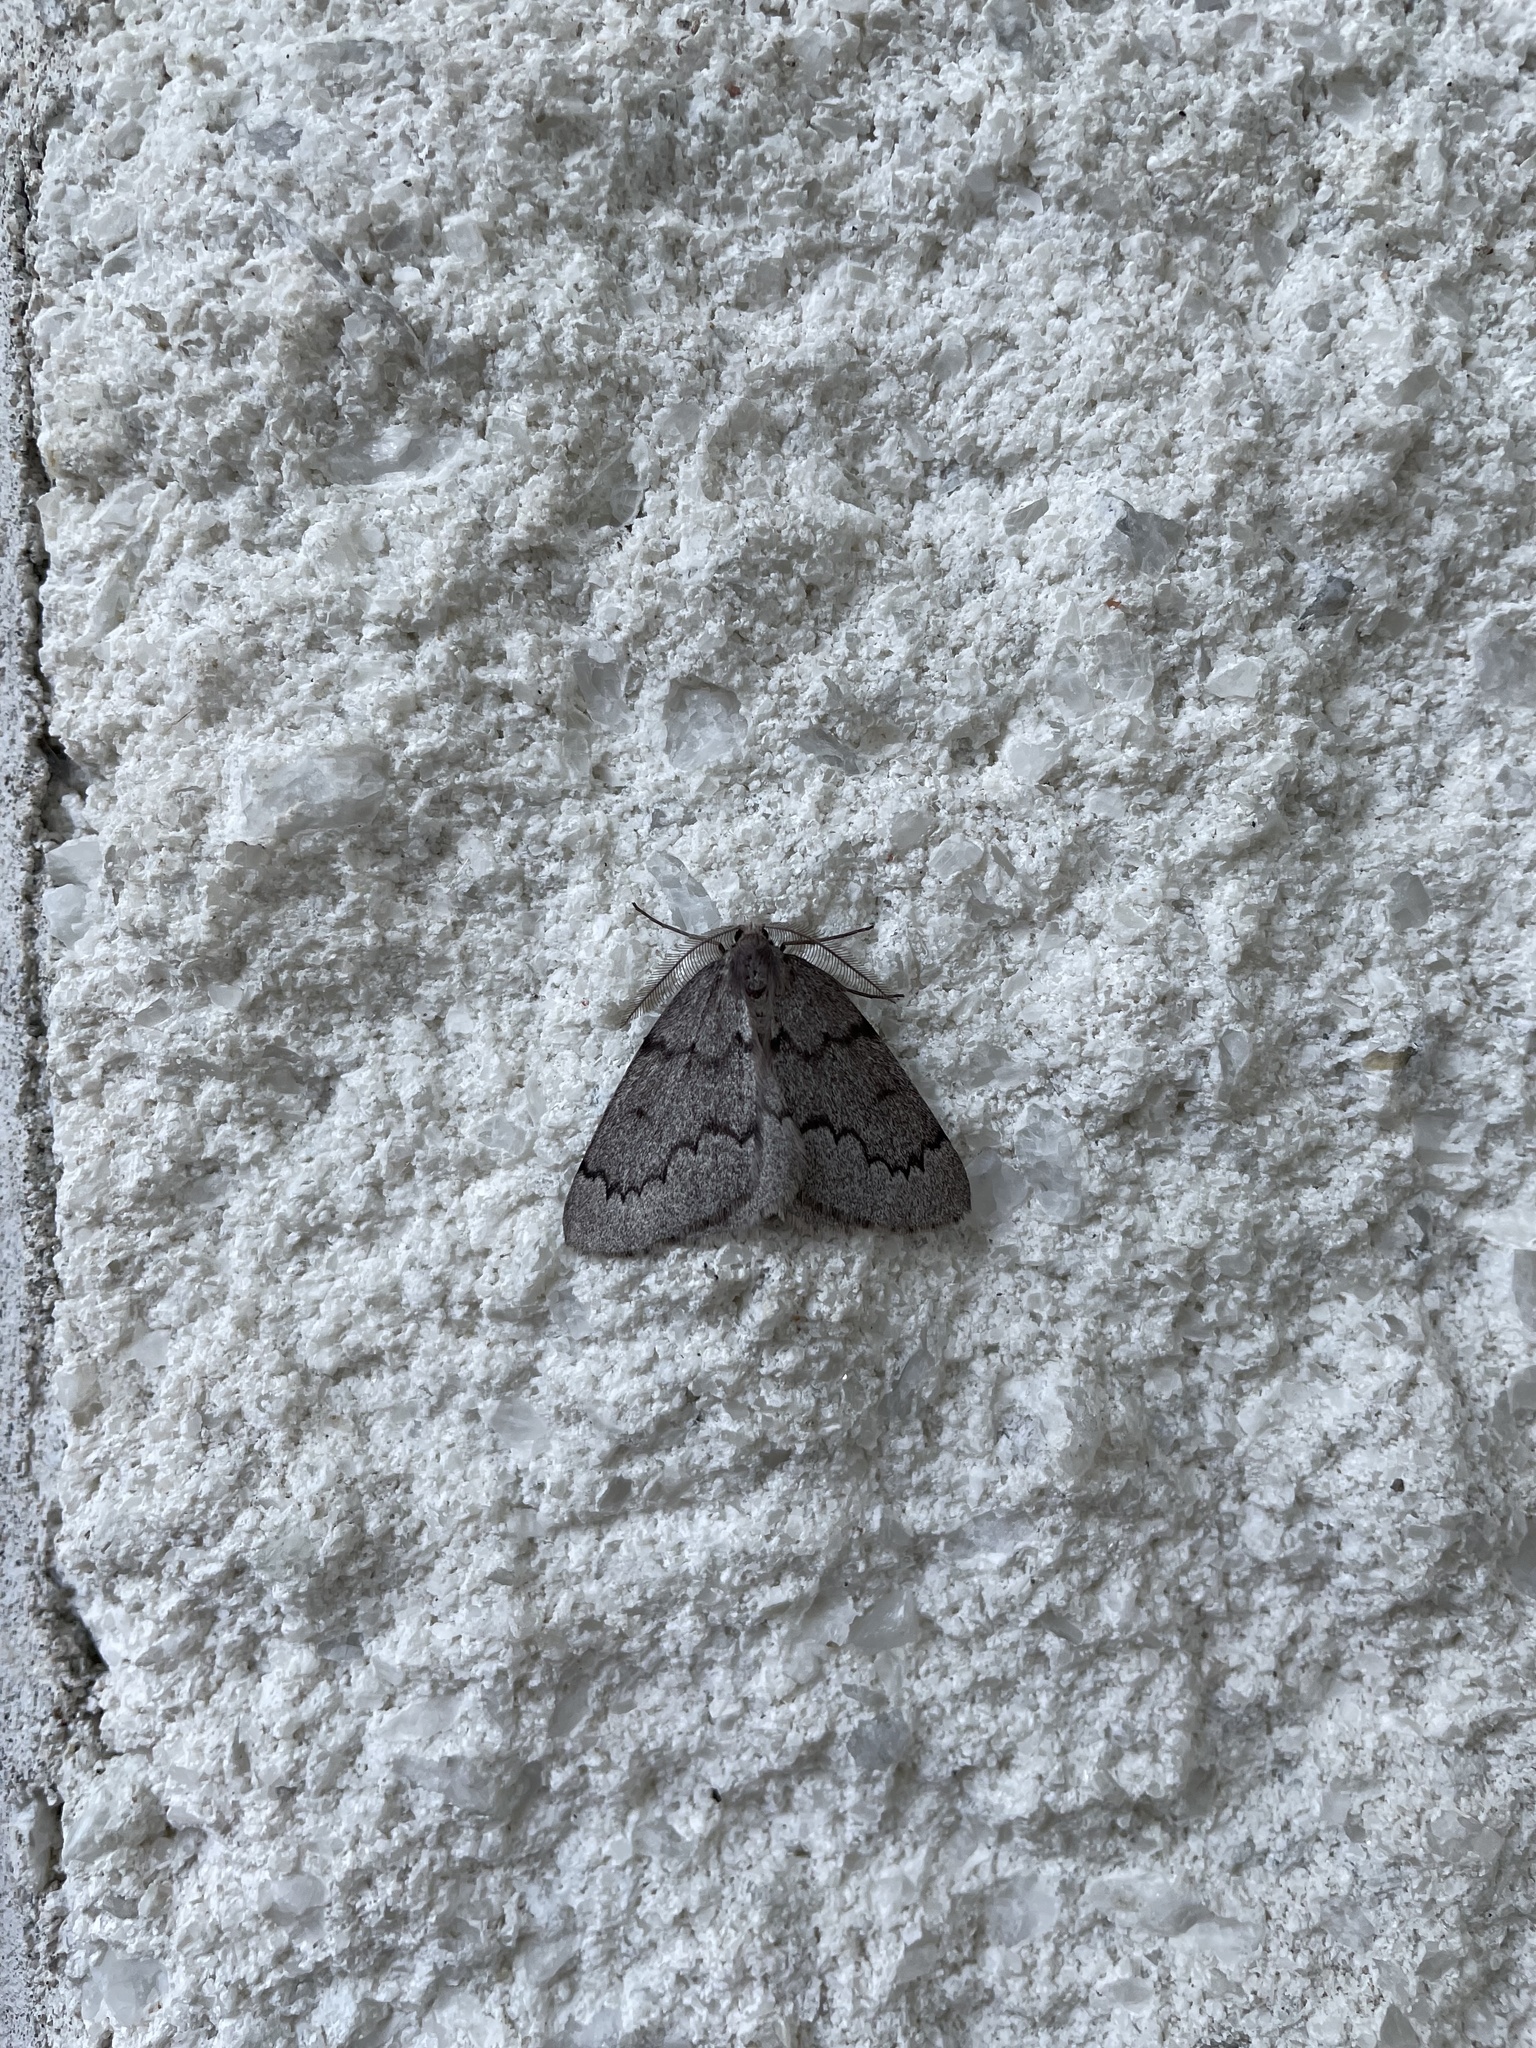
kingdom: Animalia
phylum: Arthropoda
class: Insecta
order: Lepidoptera
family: Geometridae
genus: Nepytia
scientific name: Nepytia pellucidaria
